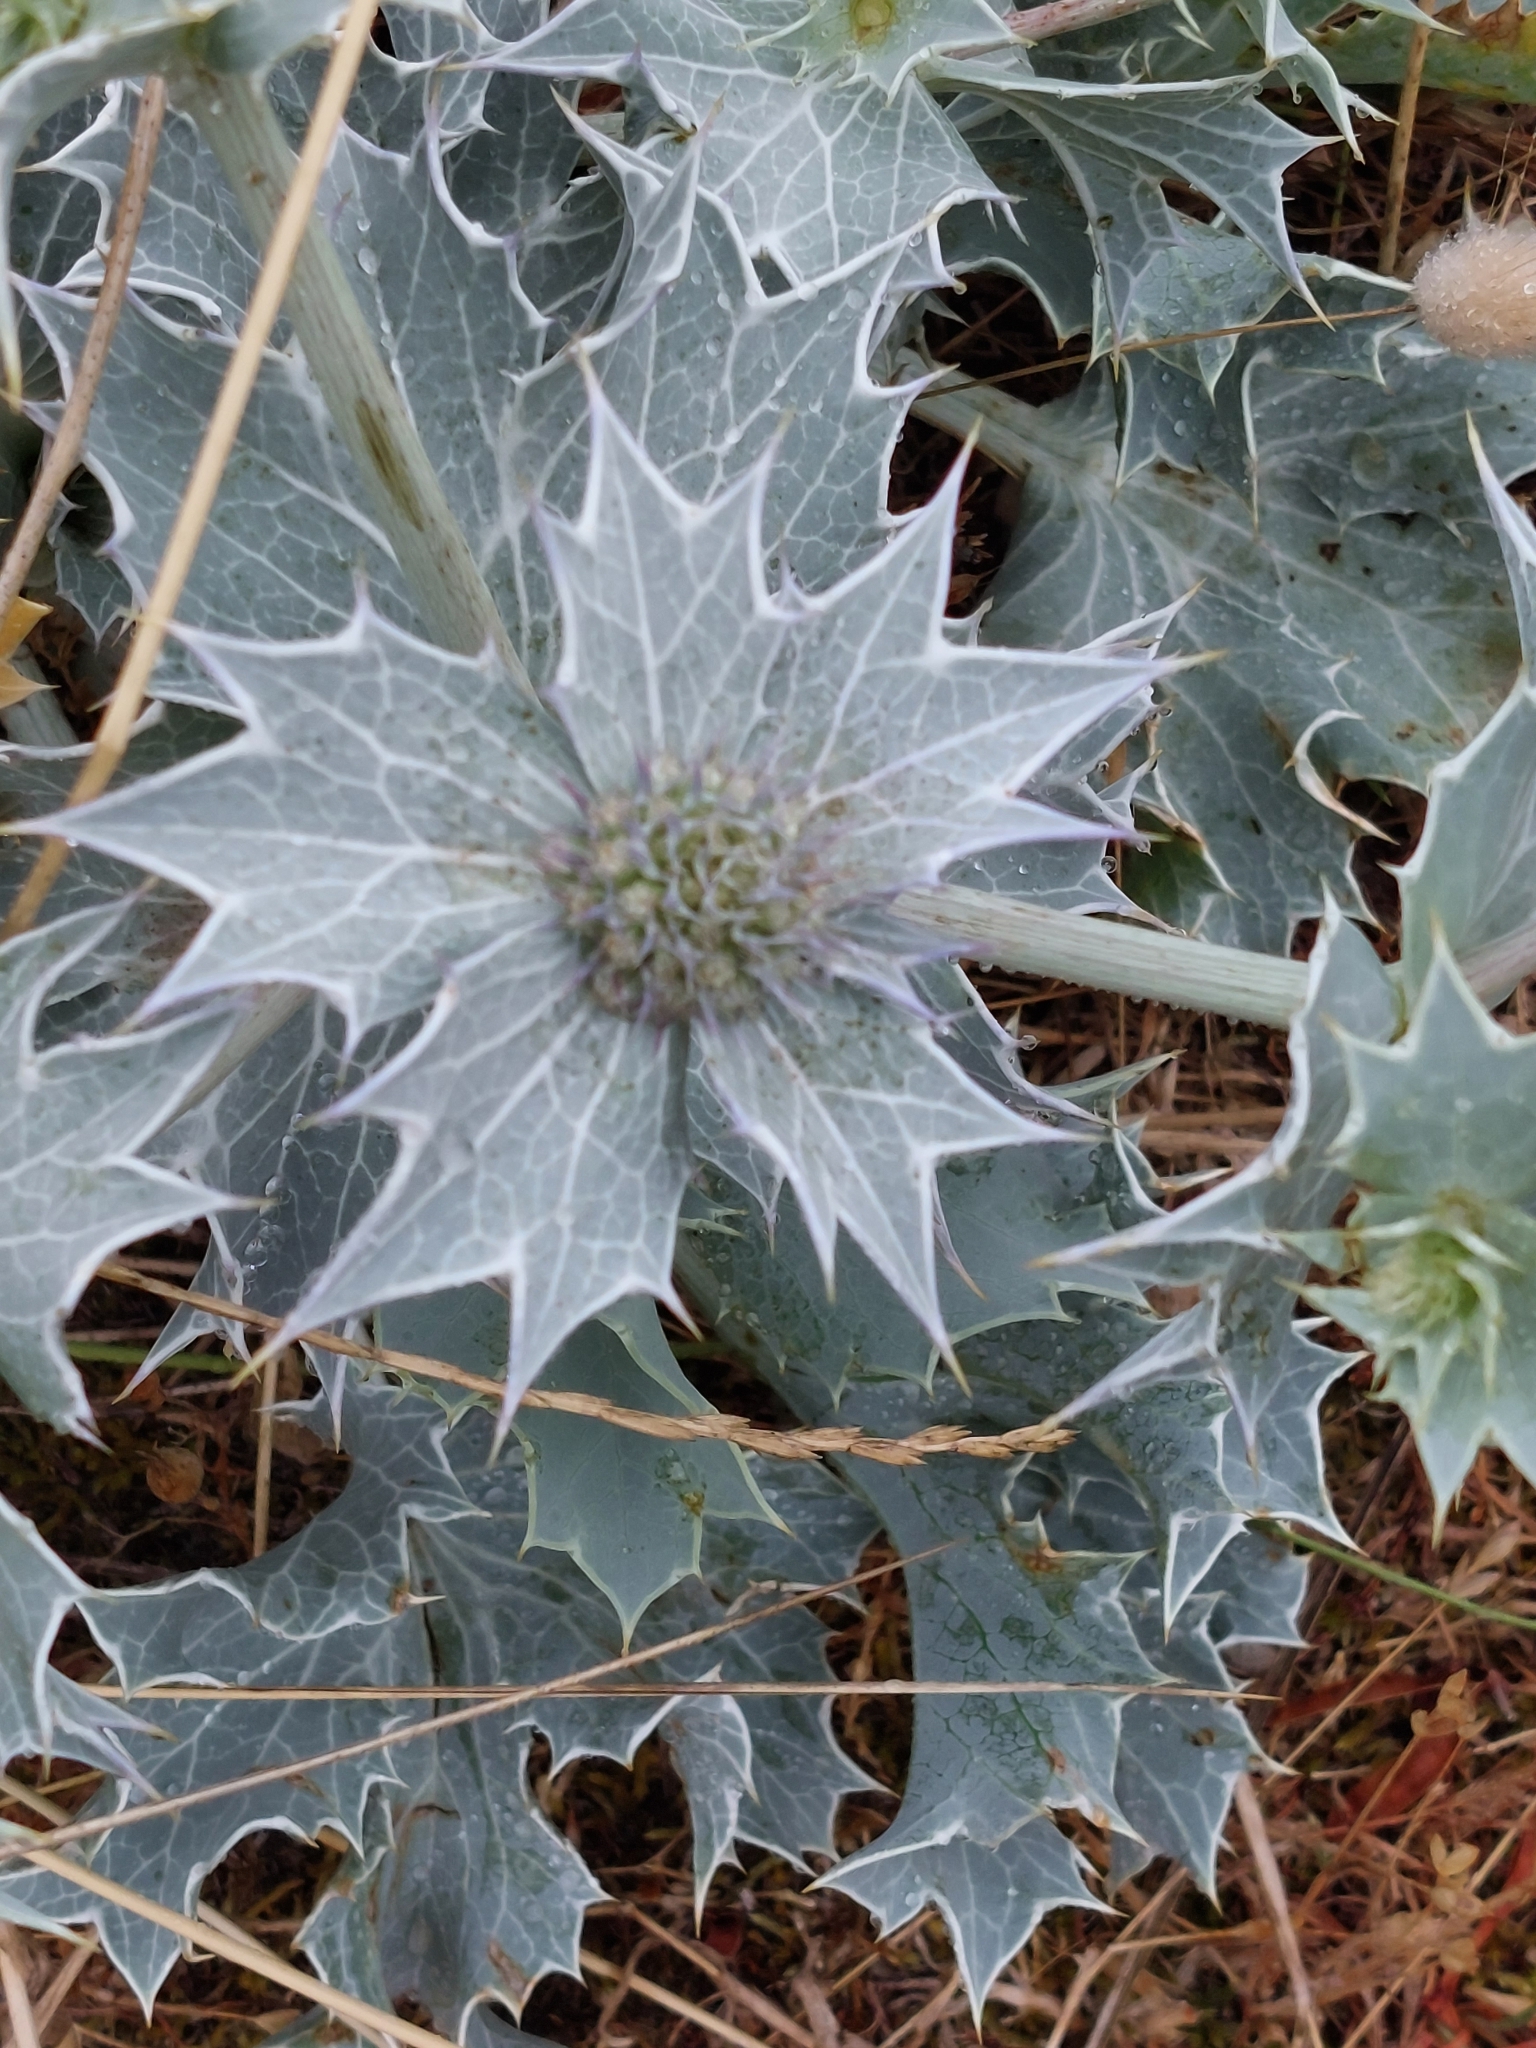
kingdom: Plantae
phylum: Tracheophyta
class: Magnoliopsida
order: Apiales
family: Apiaceae
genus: Eryngium
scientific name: Eryngium maritimum
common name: Sea-holly
